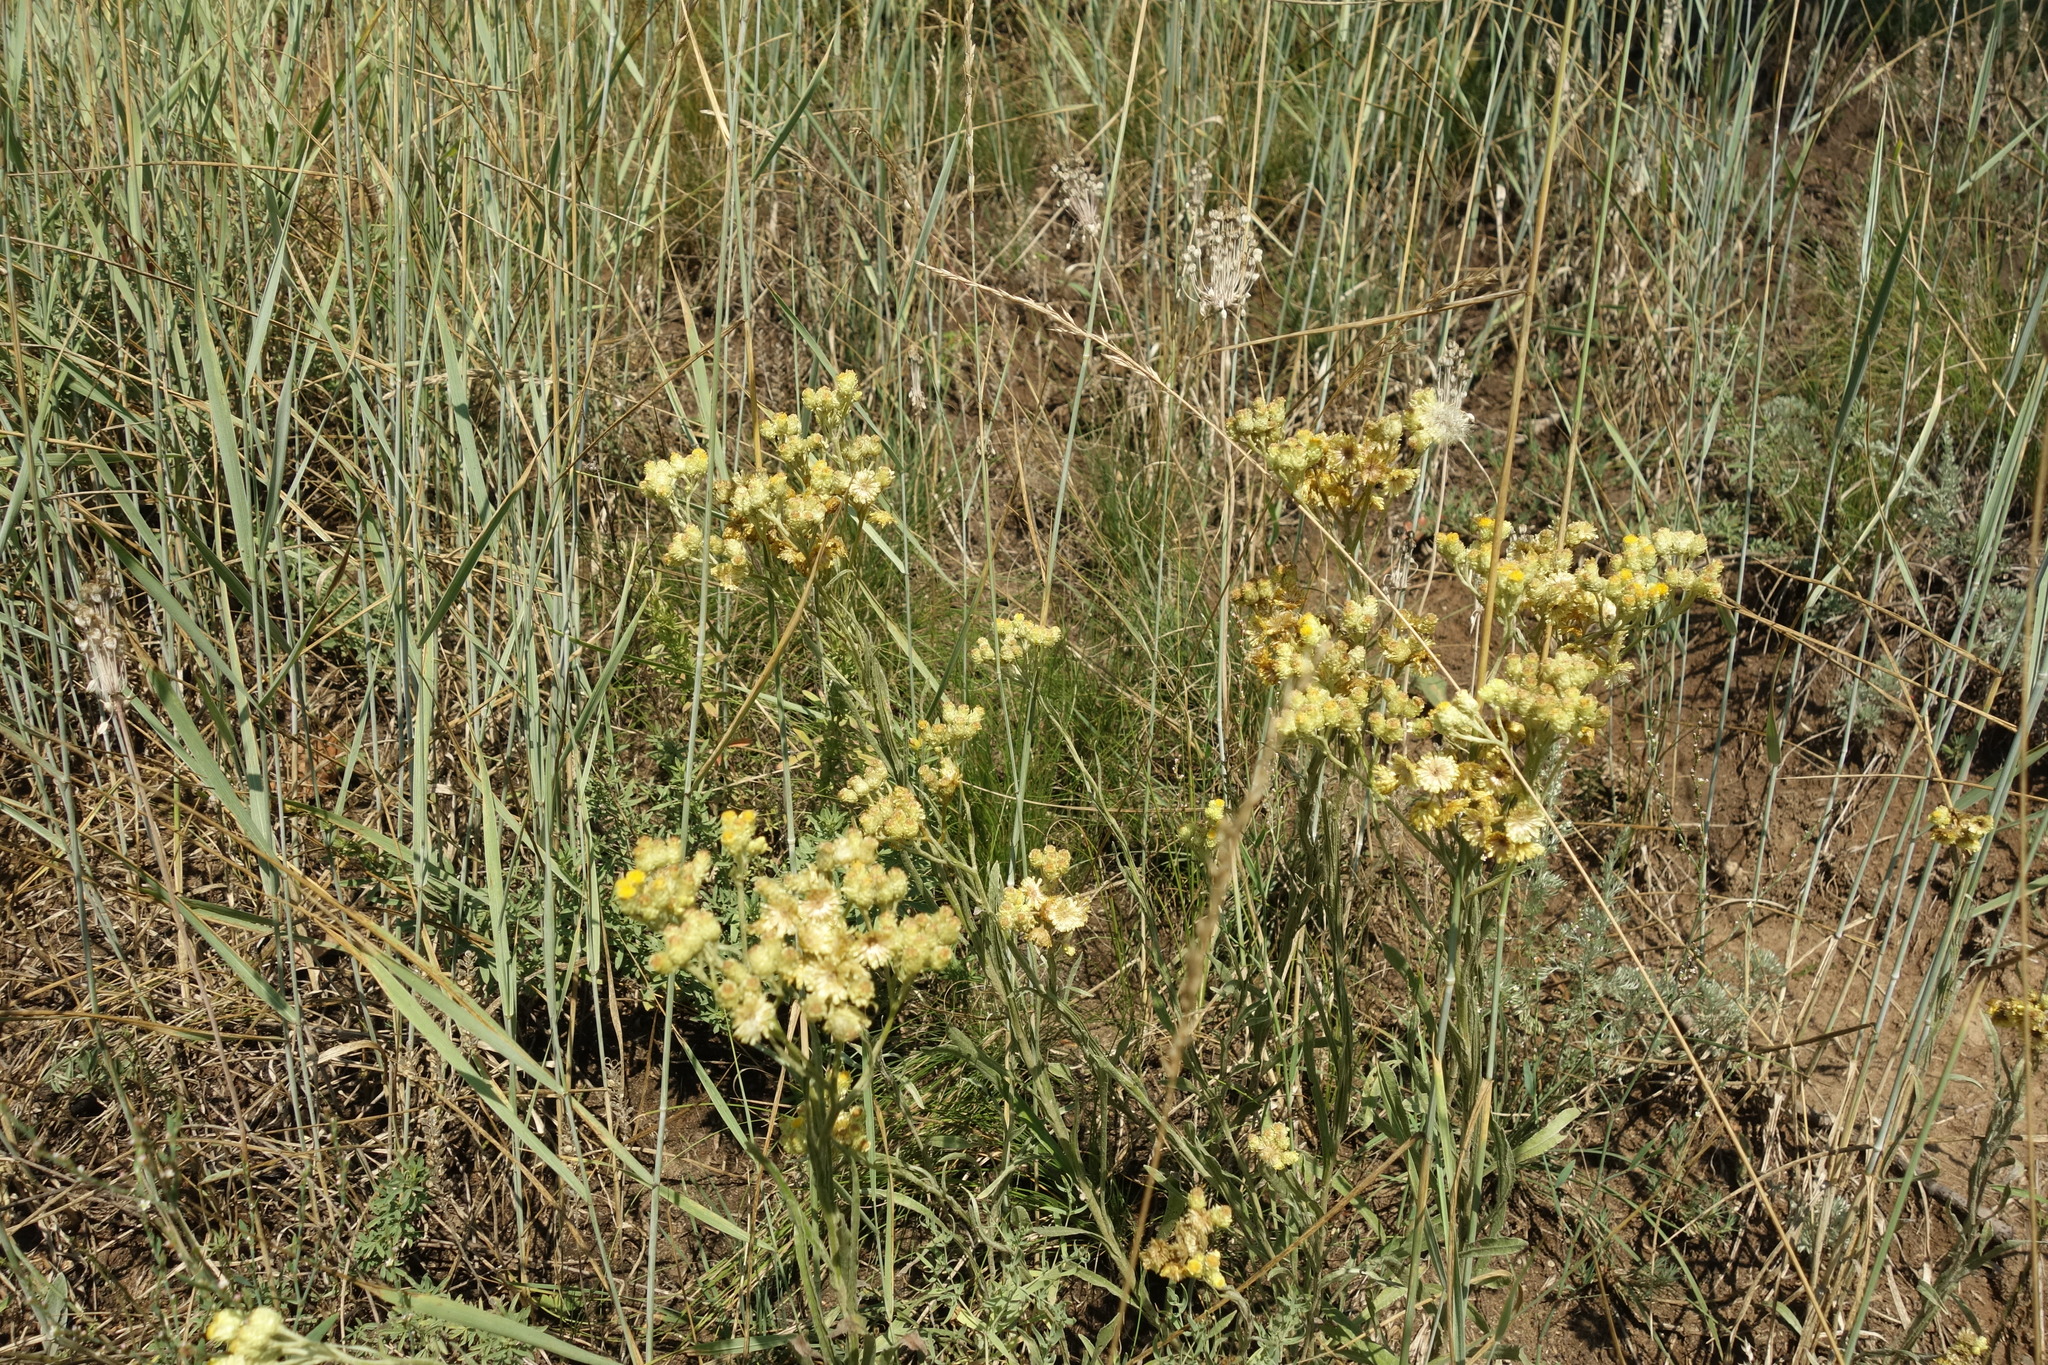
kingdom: Plantae
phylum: Tracheophyta
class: Magnoliopsida
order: Asterales
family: Asteraceae
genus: Helichrysum
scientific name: Helichrysum arenarium
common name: Strawflower
